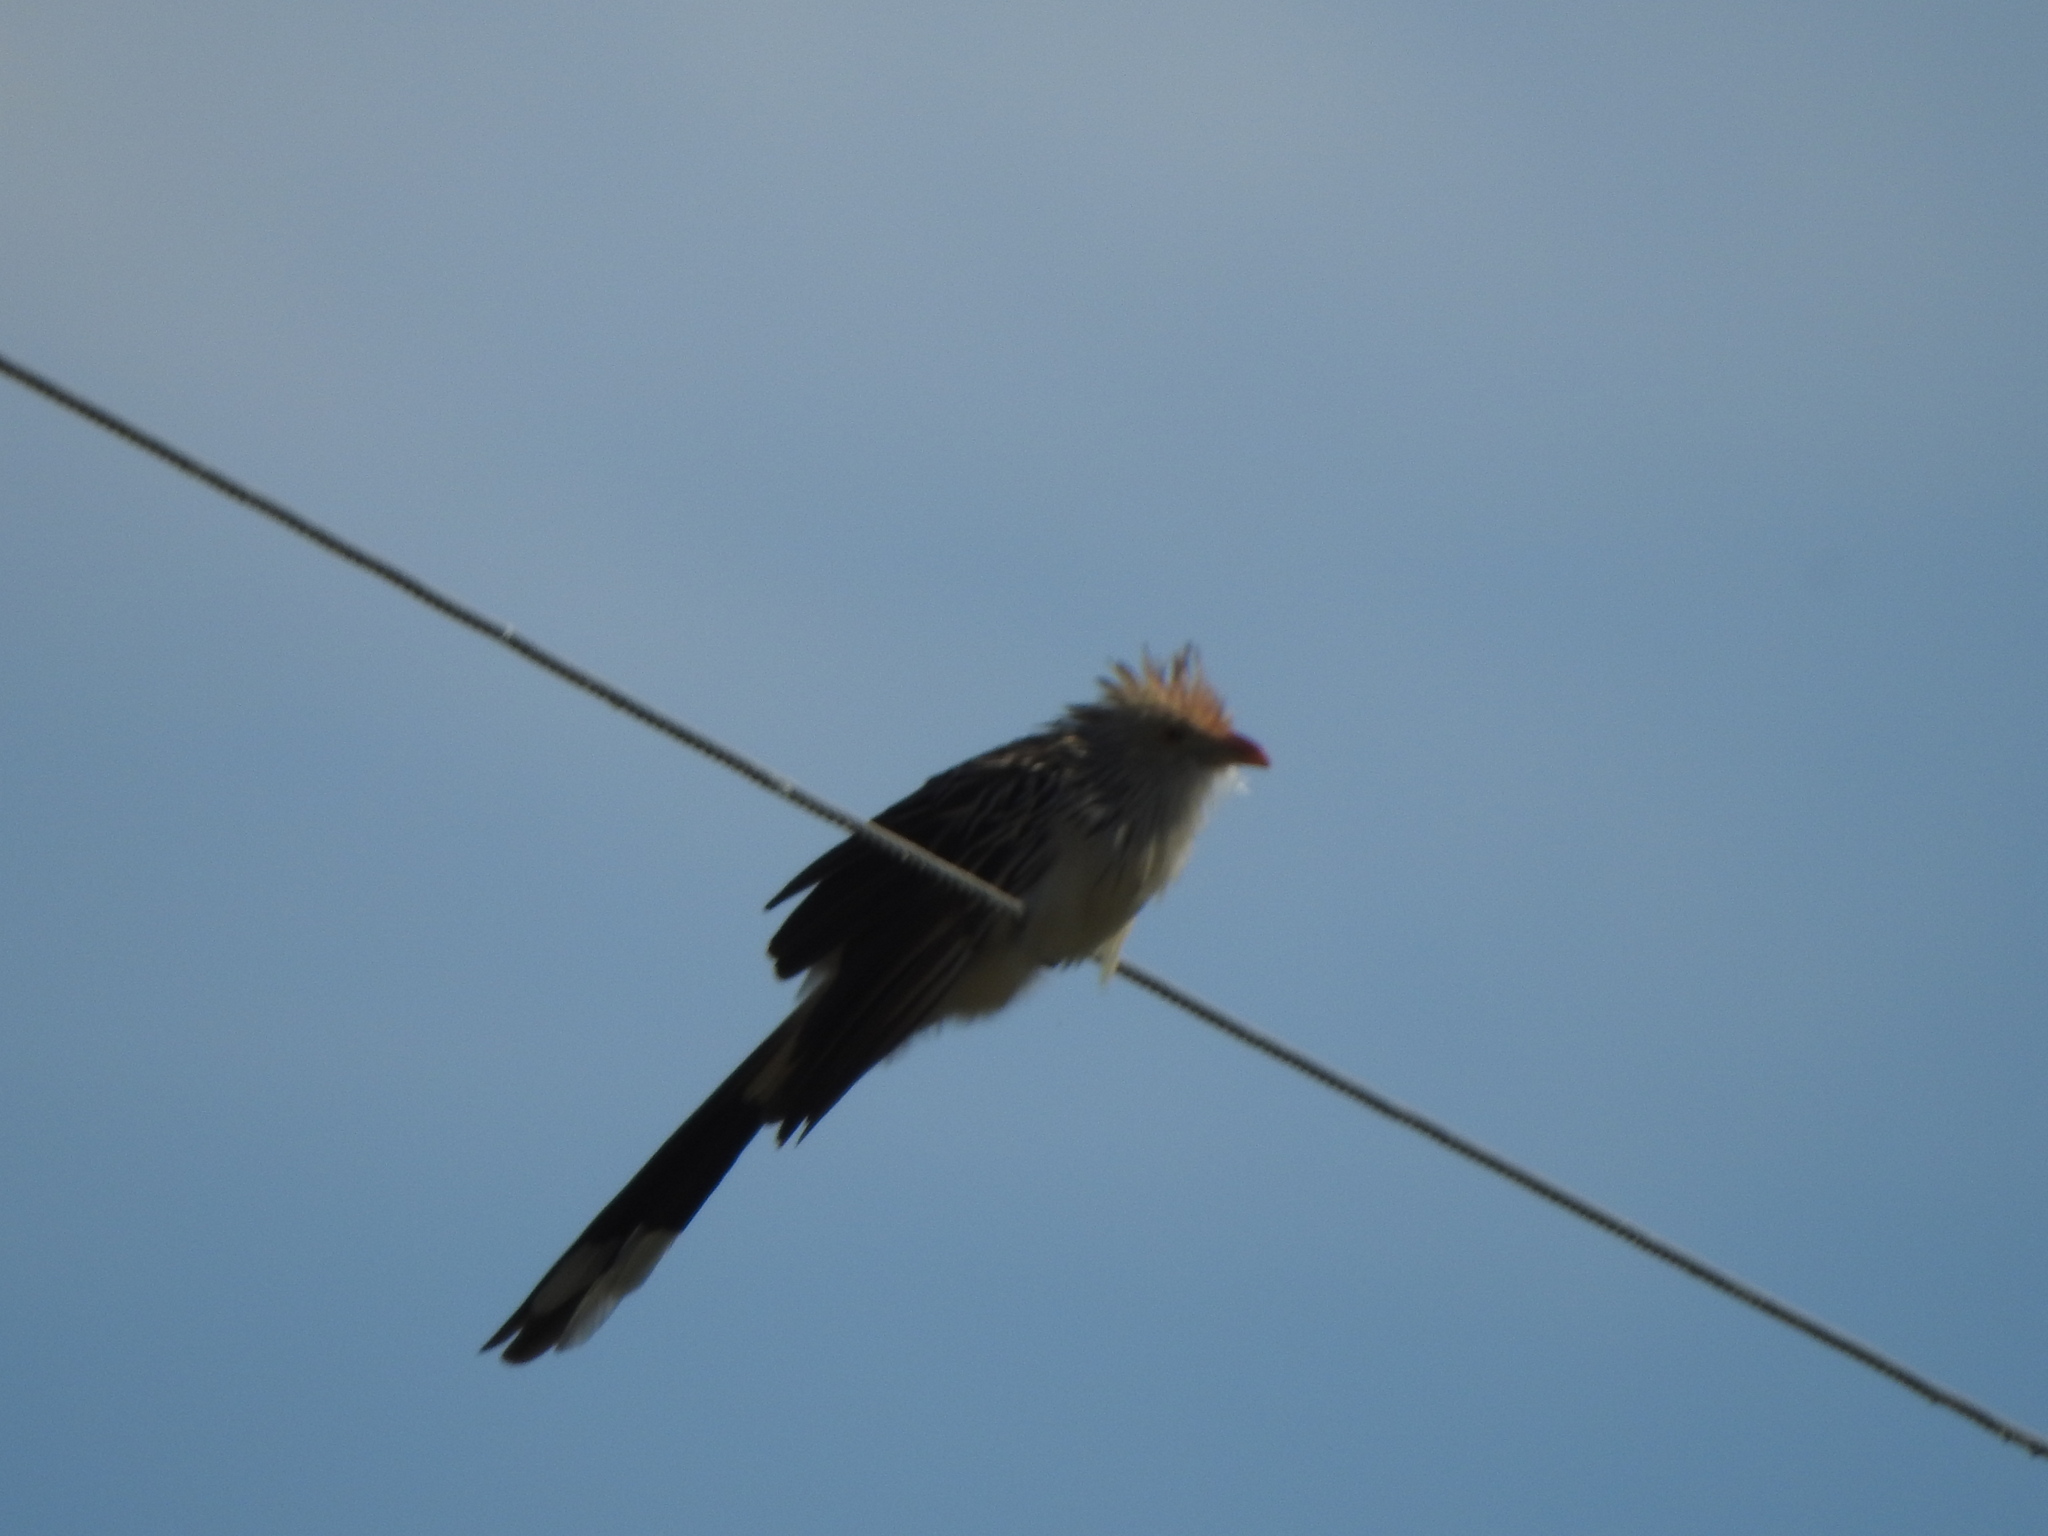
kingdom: Animalia
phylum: Chordata
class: Aves
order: Cuculiformes
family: Cuculidae
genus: Guira
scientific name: Guira guira
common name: Guira cuckoo
